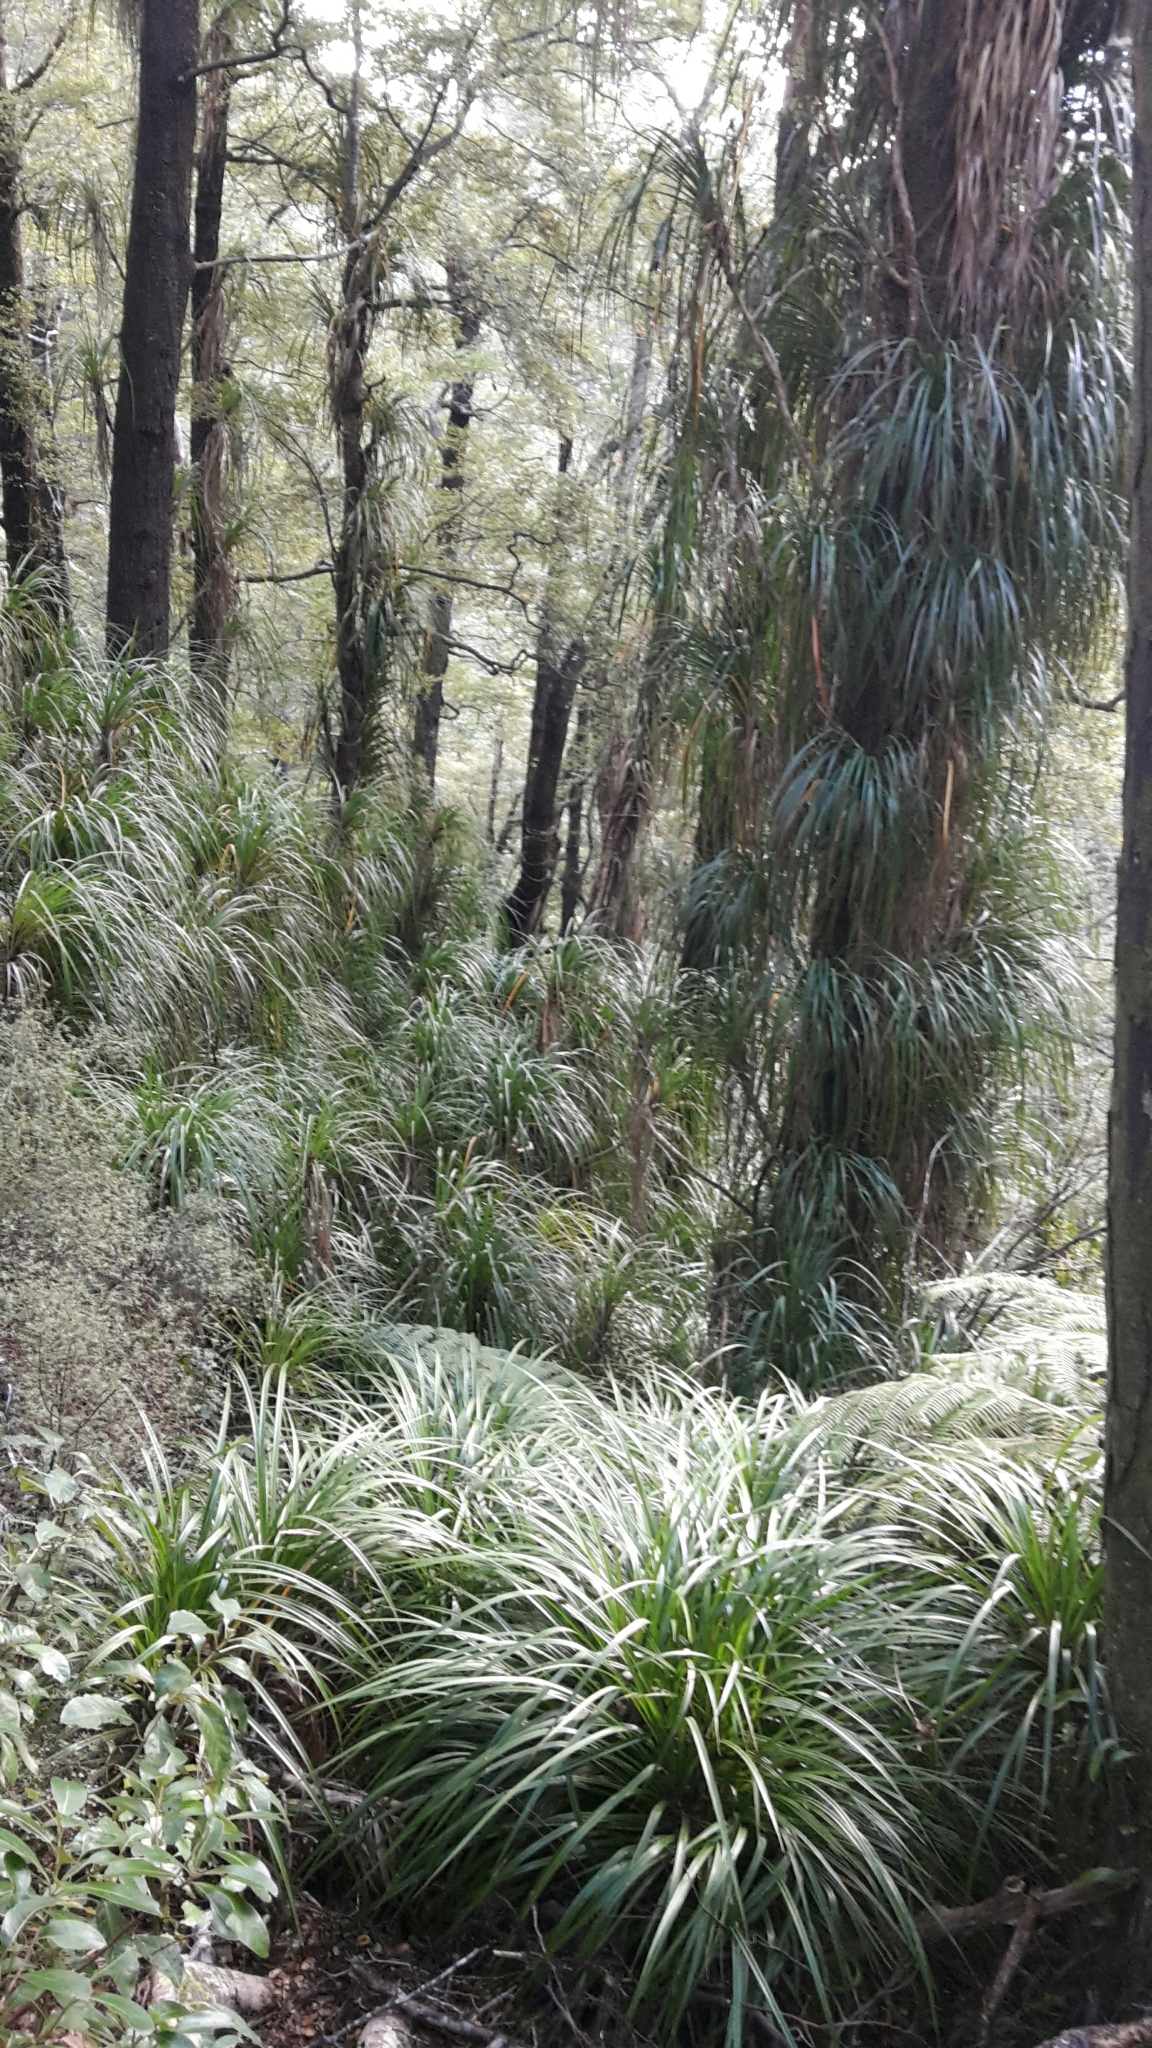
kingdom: Plantae
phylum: Tracheophyta
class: Liliopsida
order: Pandanales
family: Pandanaceae
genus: Freycinetia
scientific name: Freycinetia banksii
